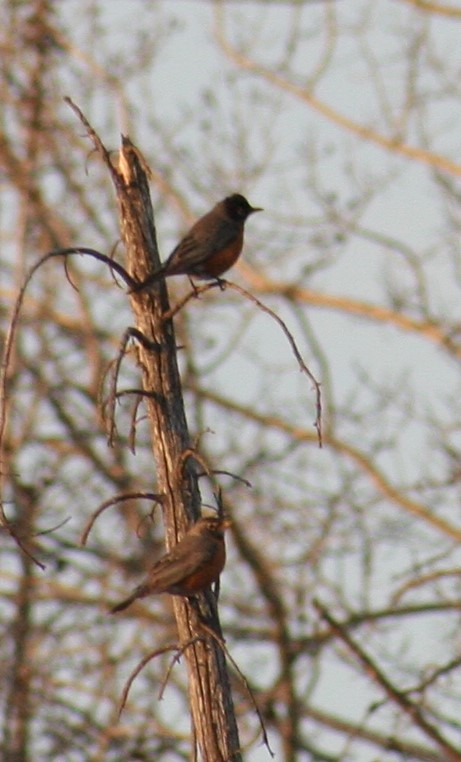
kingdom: Animalia
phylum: Chordata
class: Aves
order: Passeriformes
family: Turdidae
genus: Turdus
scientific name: Turdus migratorius
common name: American robin
